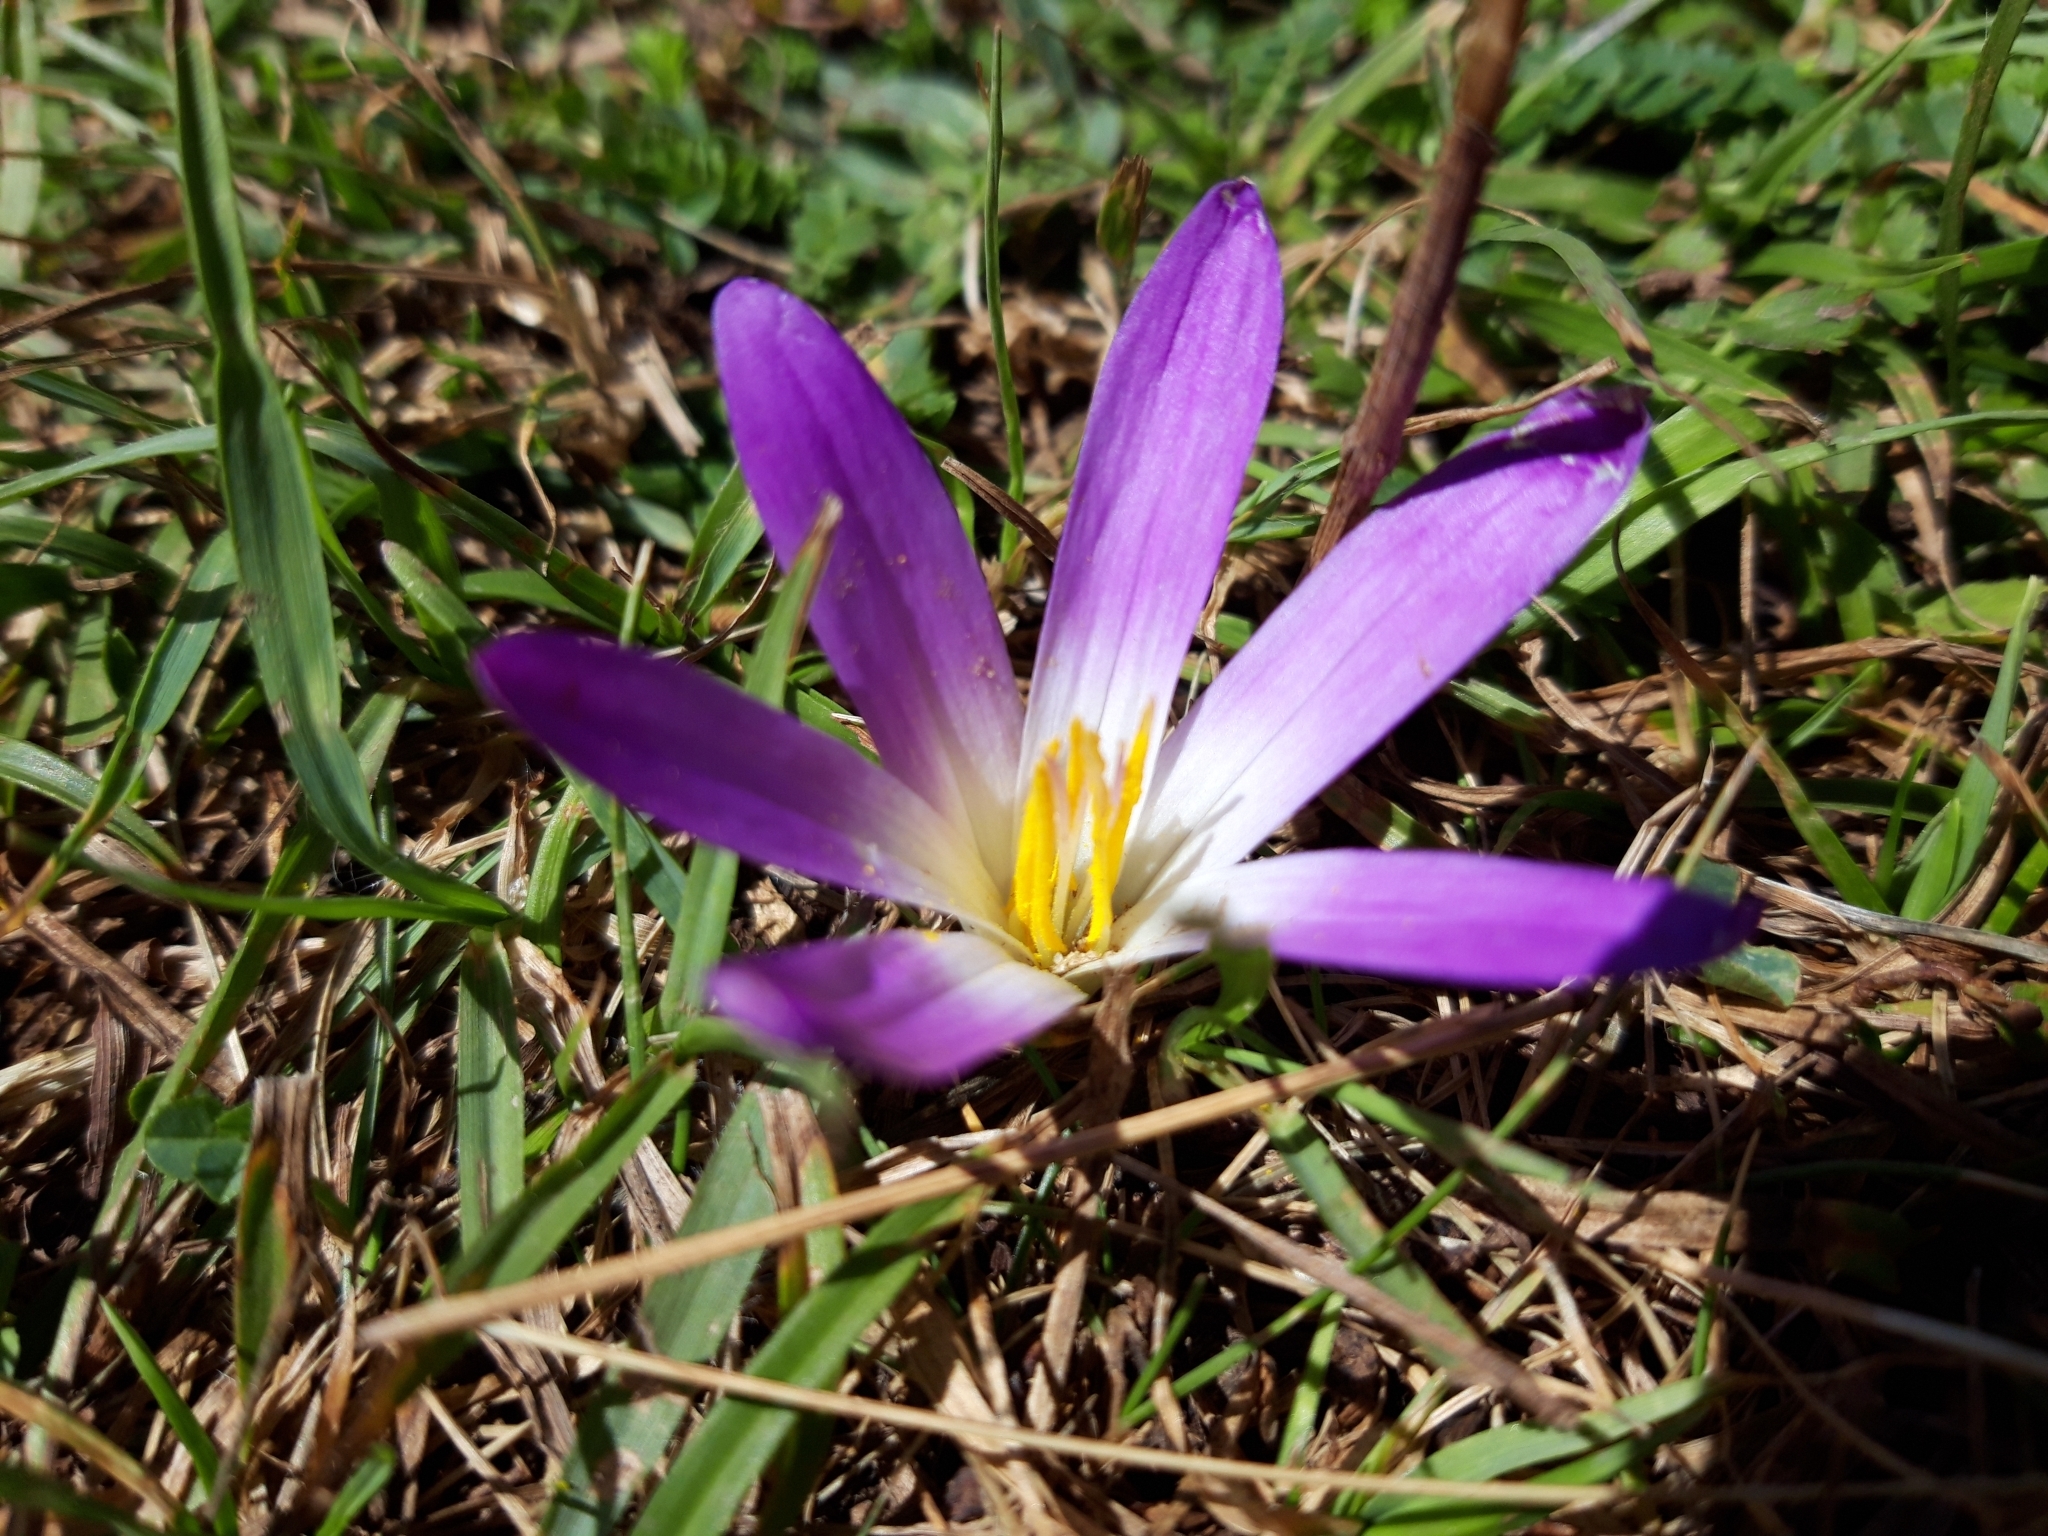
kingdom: Plantae
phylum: Tracheophyta
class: Liliopsida
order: Liliales
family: Colchicaceae
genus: Colchicum
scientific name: Colchicum montanum
